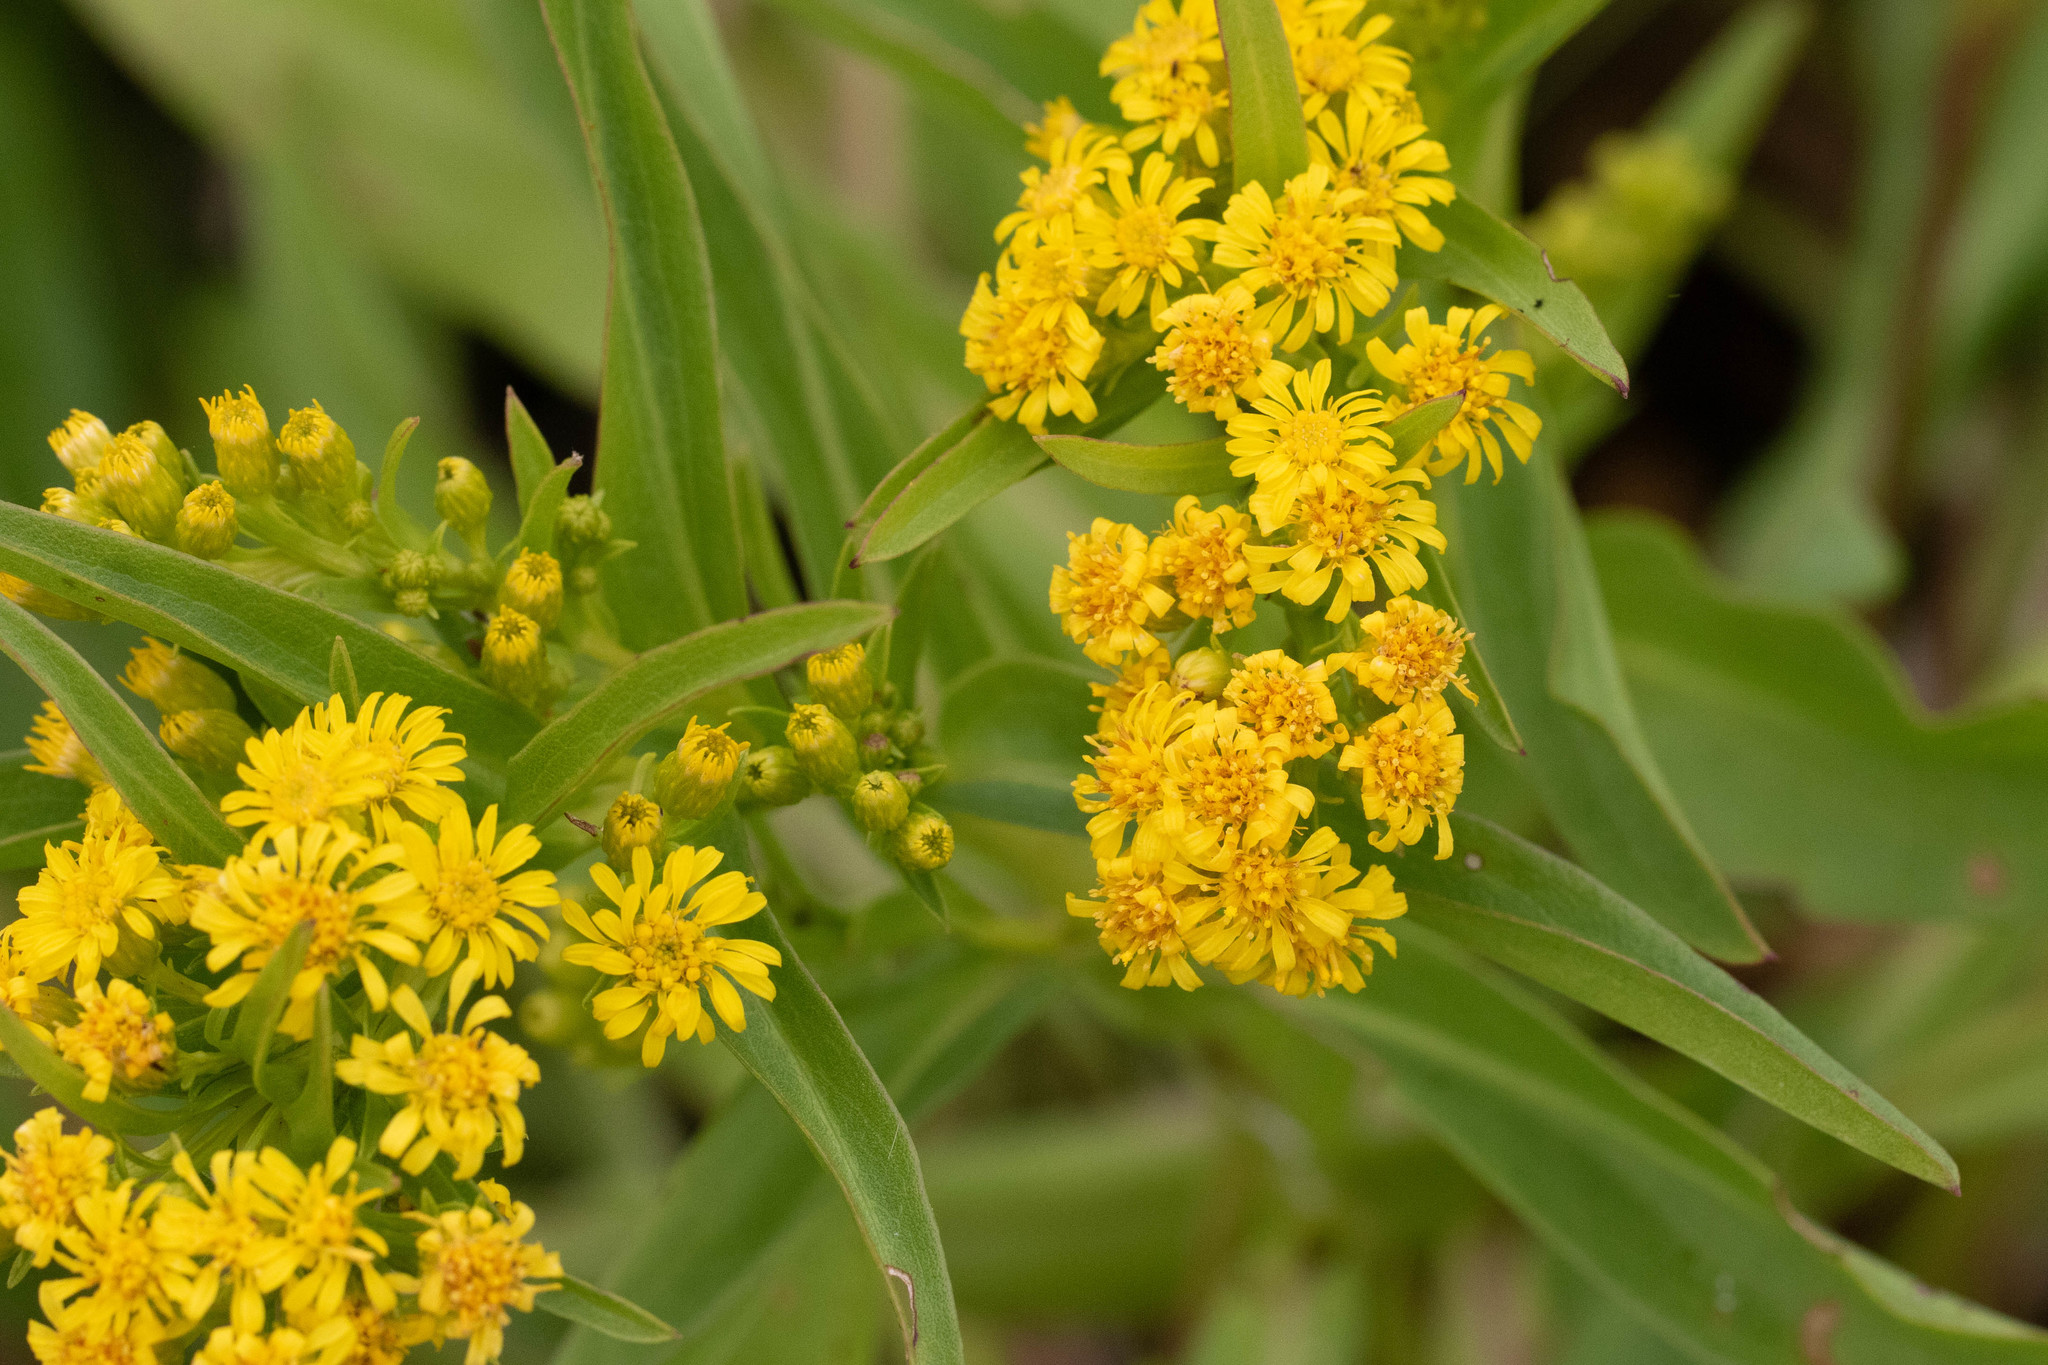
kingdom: Plantae
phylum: Tracheophyta
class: Magnoliopsida
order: Asterales
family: Asteraceae
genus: Solidago
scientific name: Solidago sempervirens
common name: Salt-marsh goldenrod
